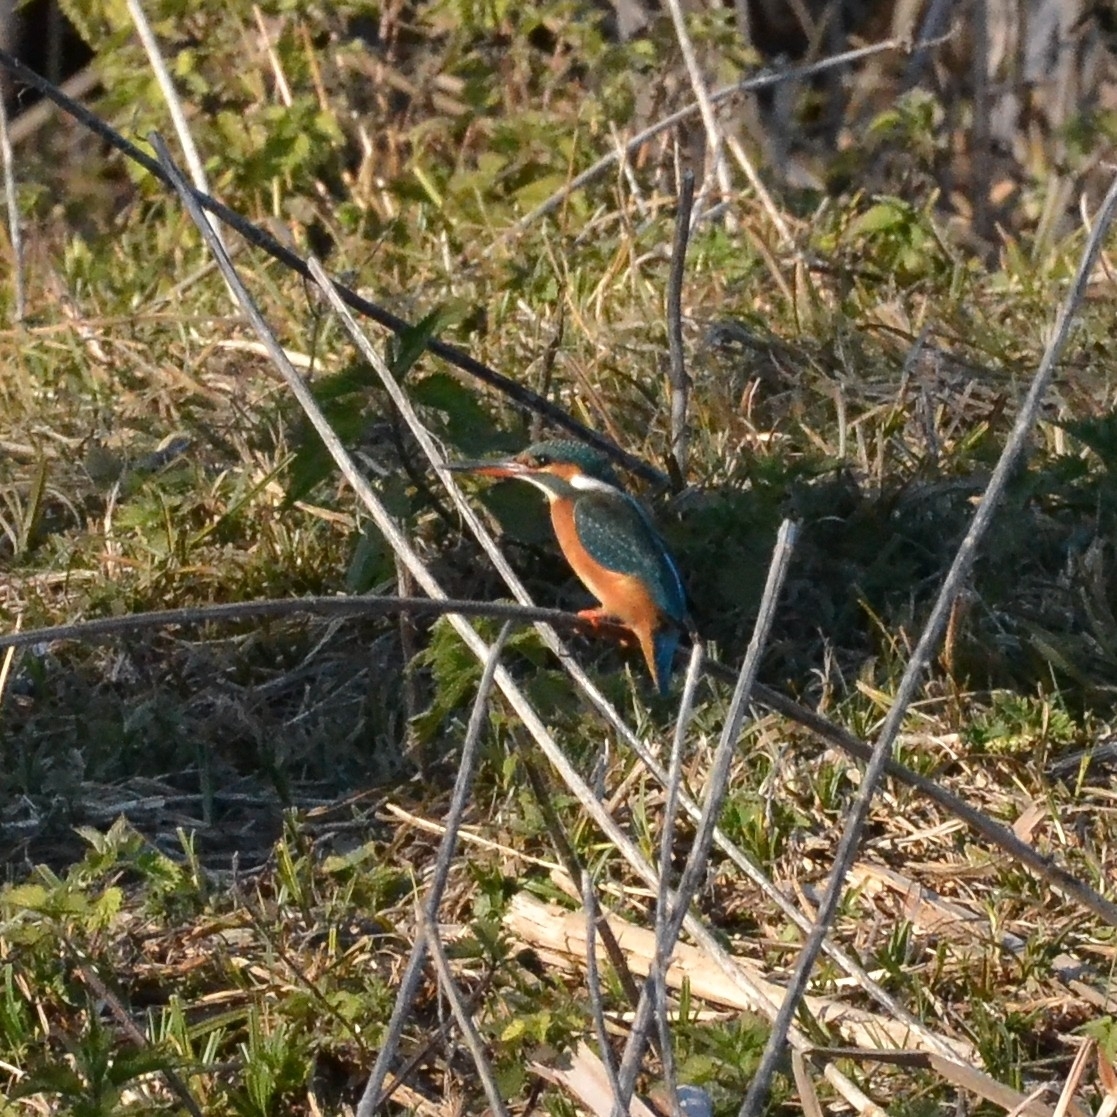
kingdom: Animalia
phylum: Chordata
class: Aves
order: Coraciiformes
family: Alcedinidae
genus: Alcedo
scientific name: Alcedo atthis
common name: Common kingfisher
